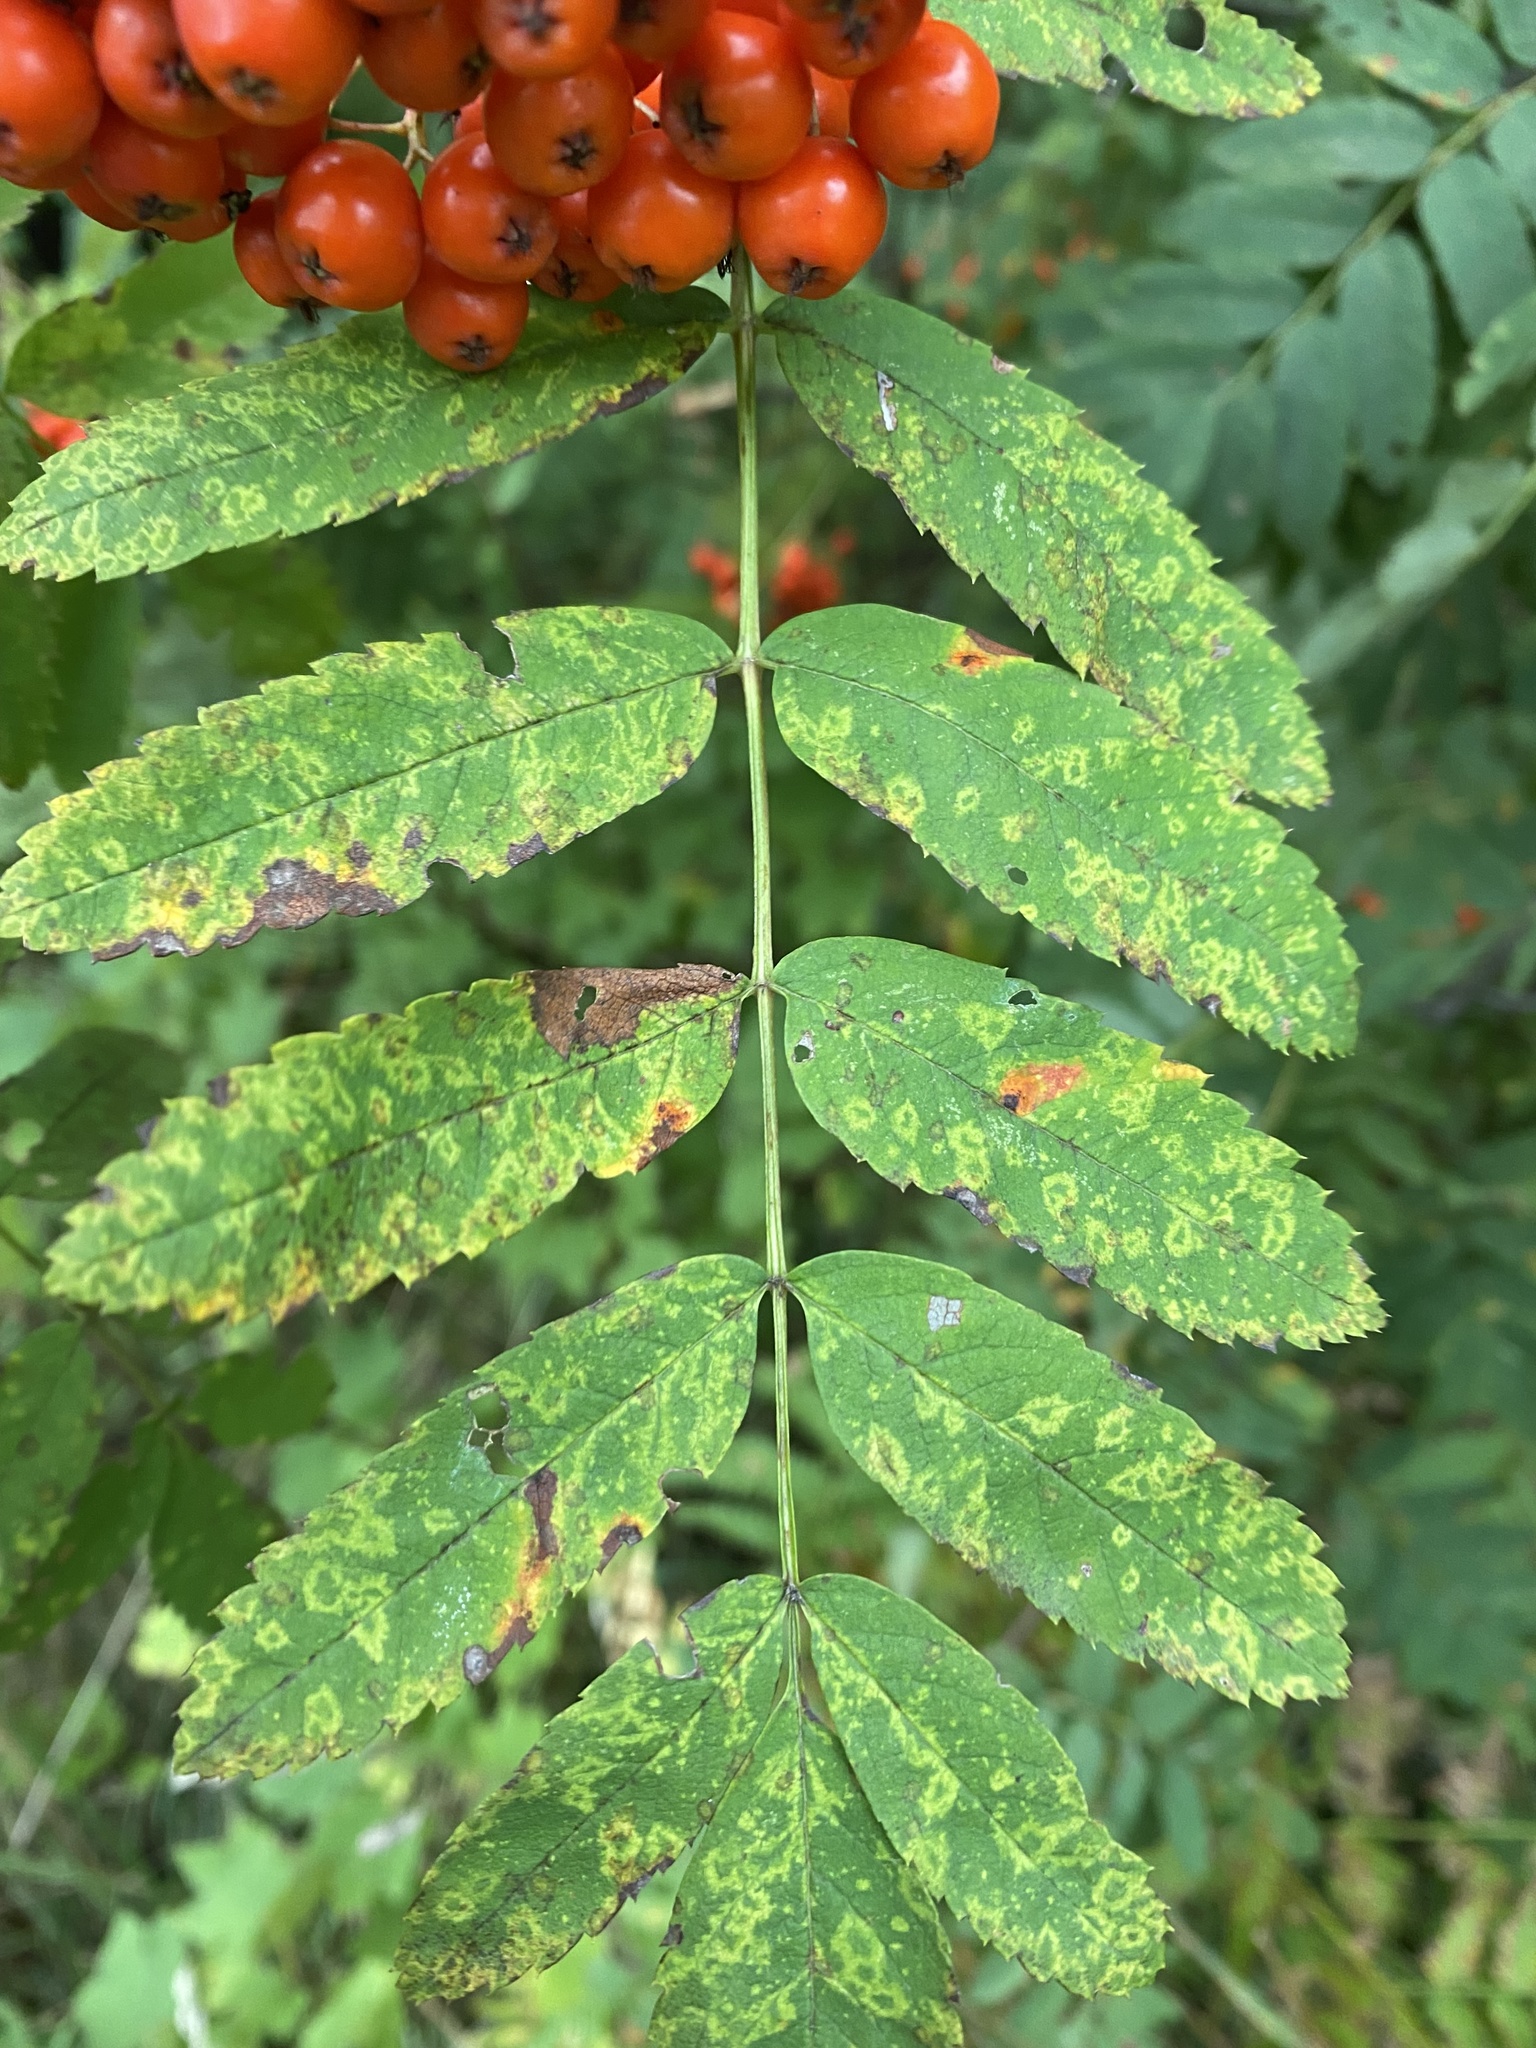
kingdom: Viruses
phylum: Negarnaviricota
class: Ellioviricetes
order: Bunyavirales
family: Fimoviridae
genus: Emaravirus
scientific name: Emaravirus sorbi
